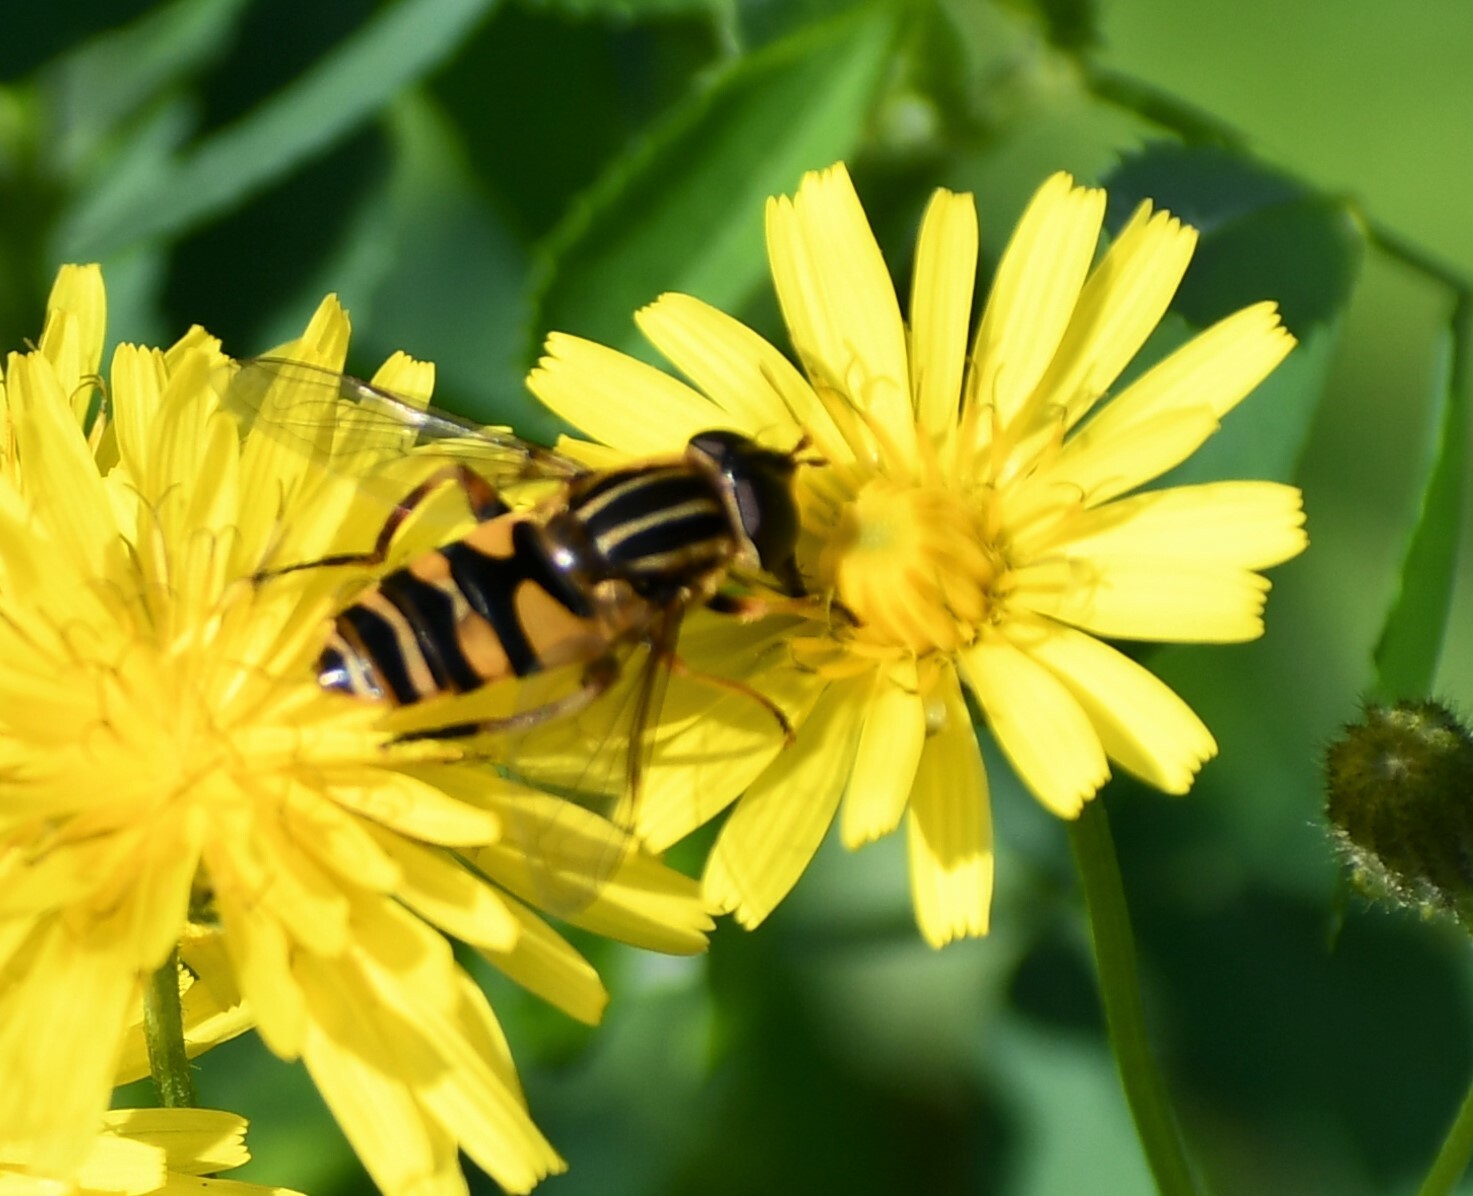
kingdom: Animalia
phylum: Arthropoda
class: Insecta
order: Diptera
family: Syrphidae
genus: Helophilus
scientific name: Helophilus fasciatus
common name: Narrow-headed marsh fly
